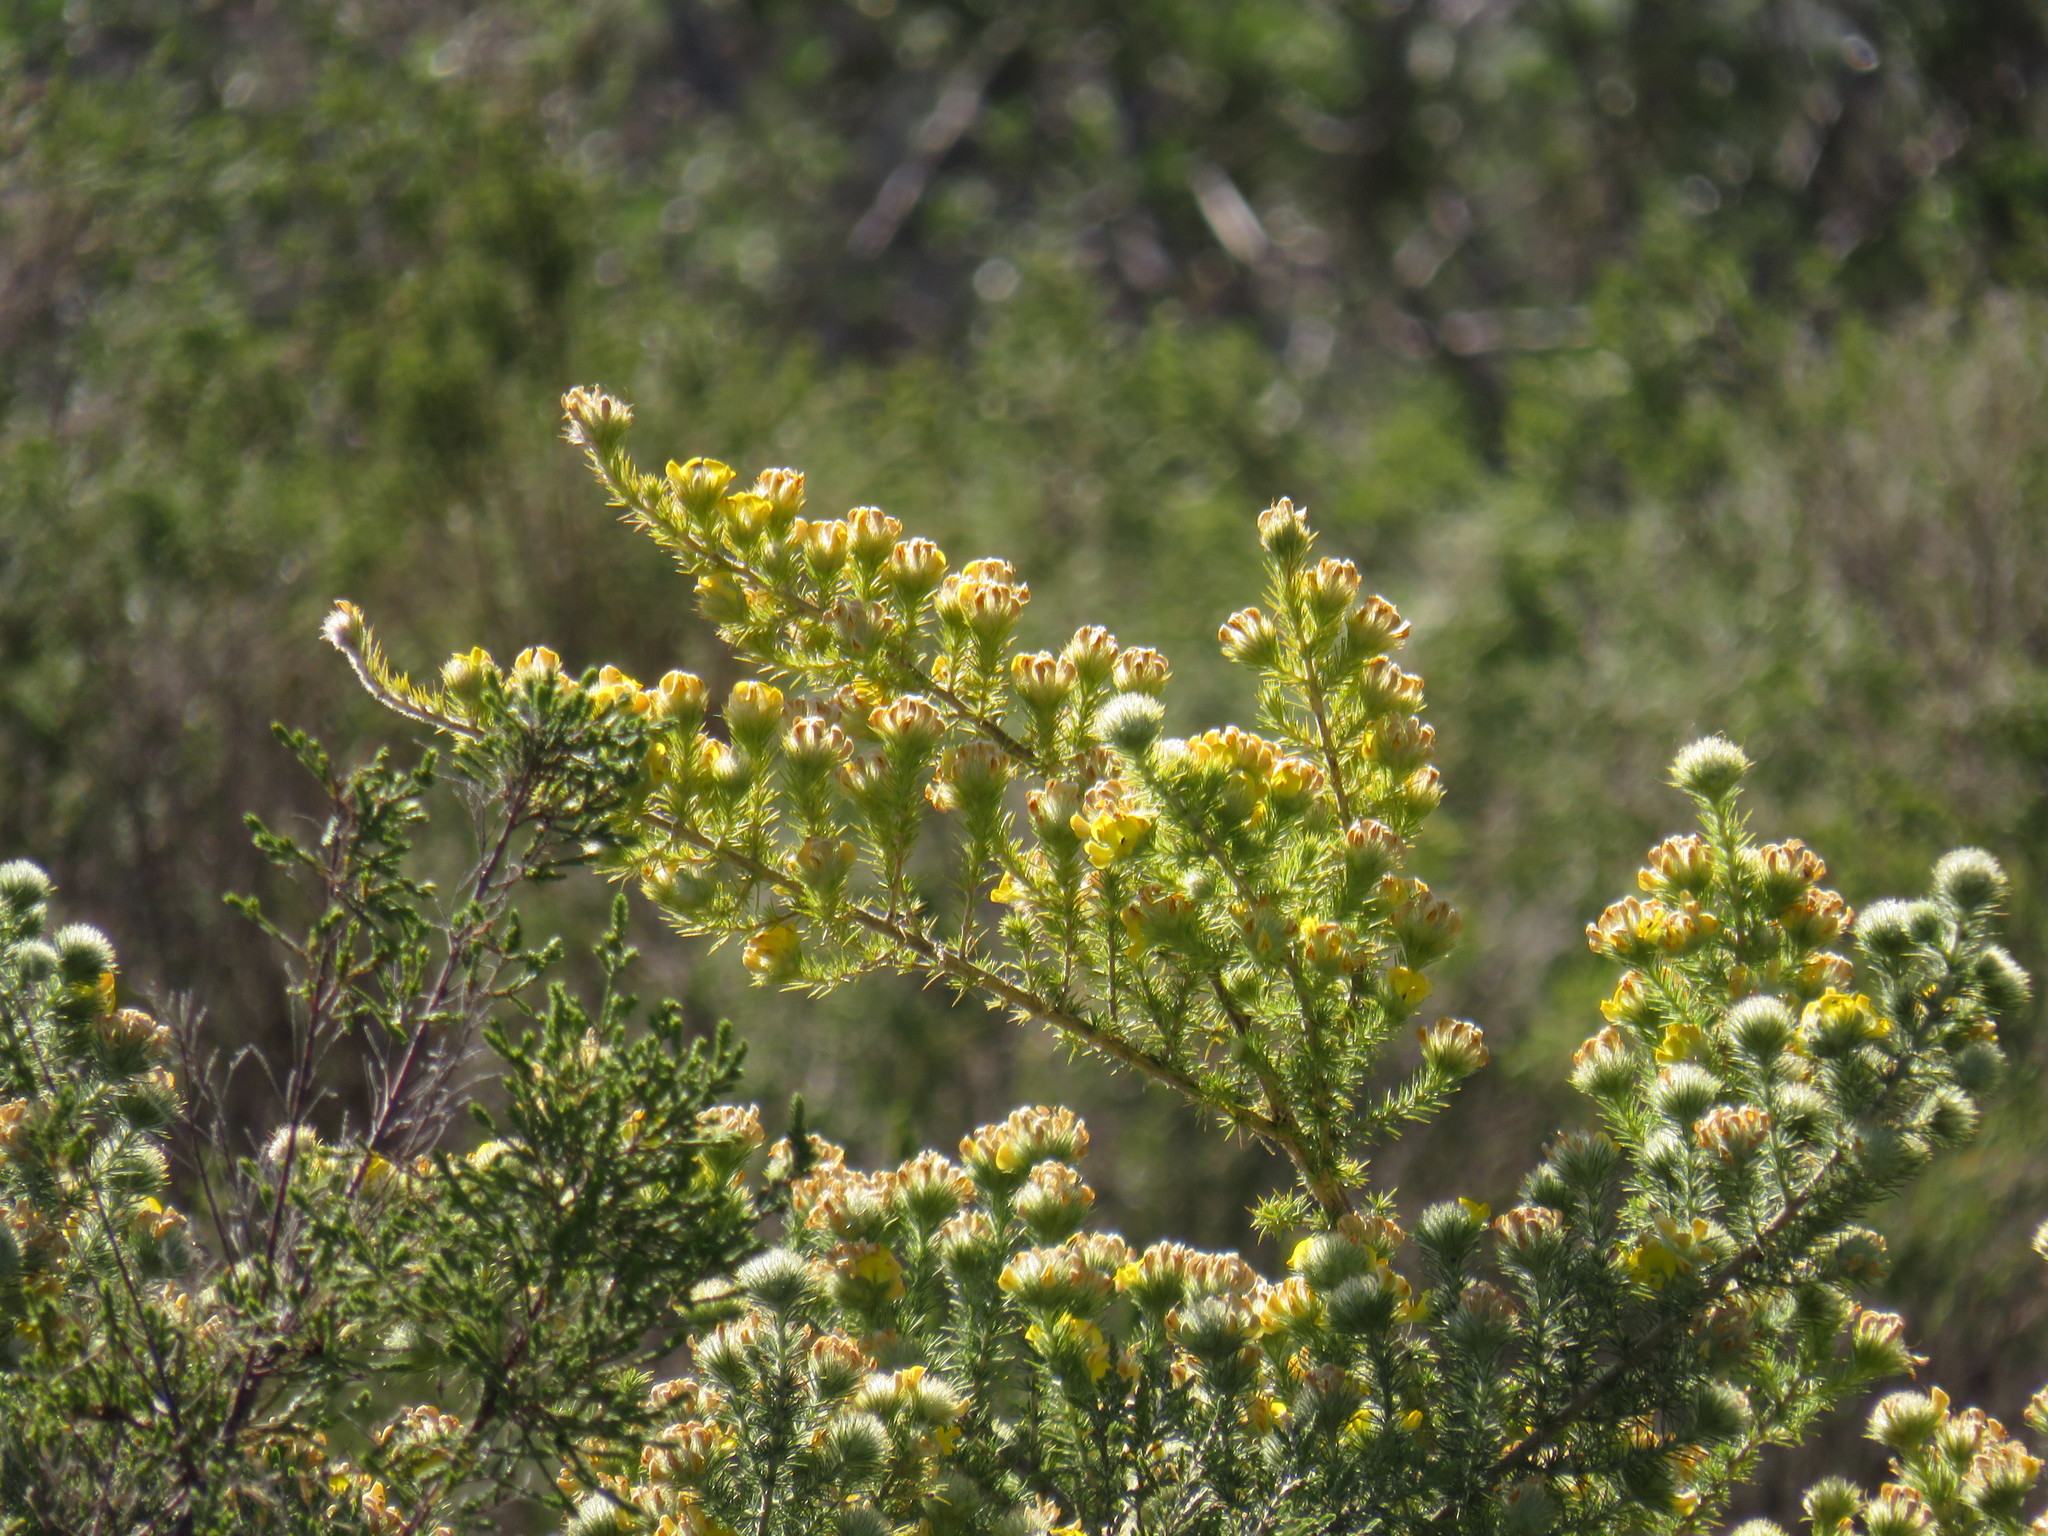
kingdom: Plantae
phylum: Tracheophyta
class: Magnoliopsida
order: Fabales
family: Fabaceae
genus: Aspalathus
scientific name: Aspalathus chenopoda
